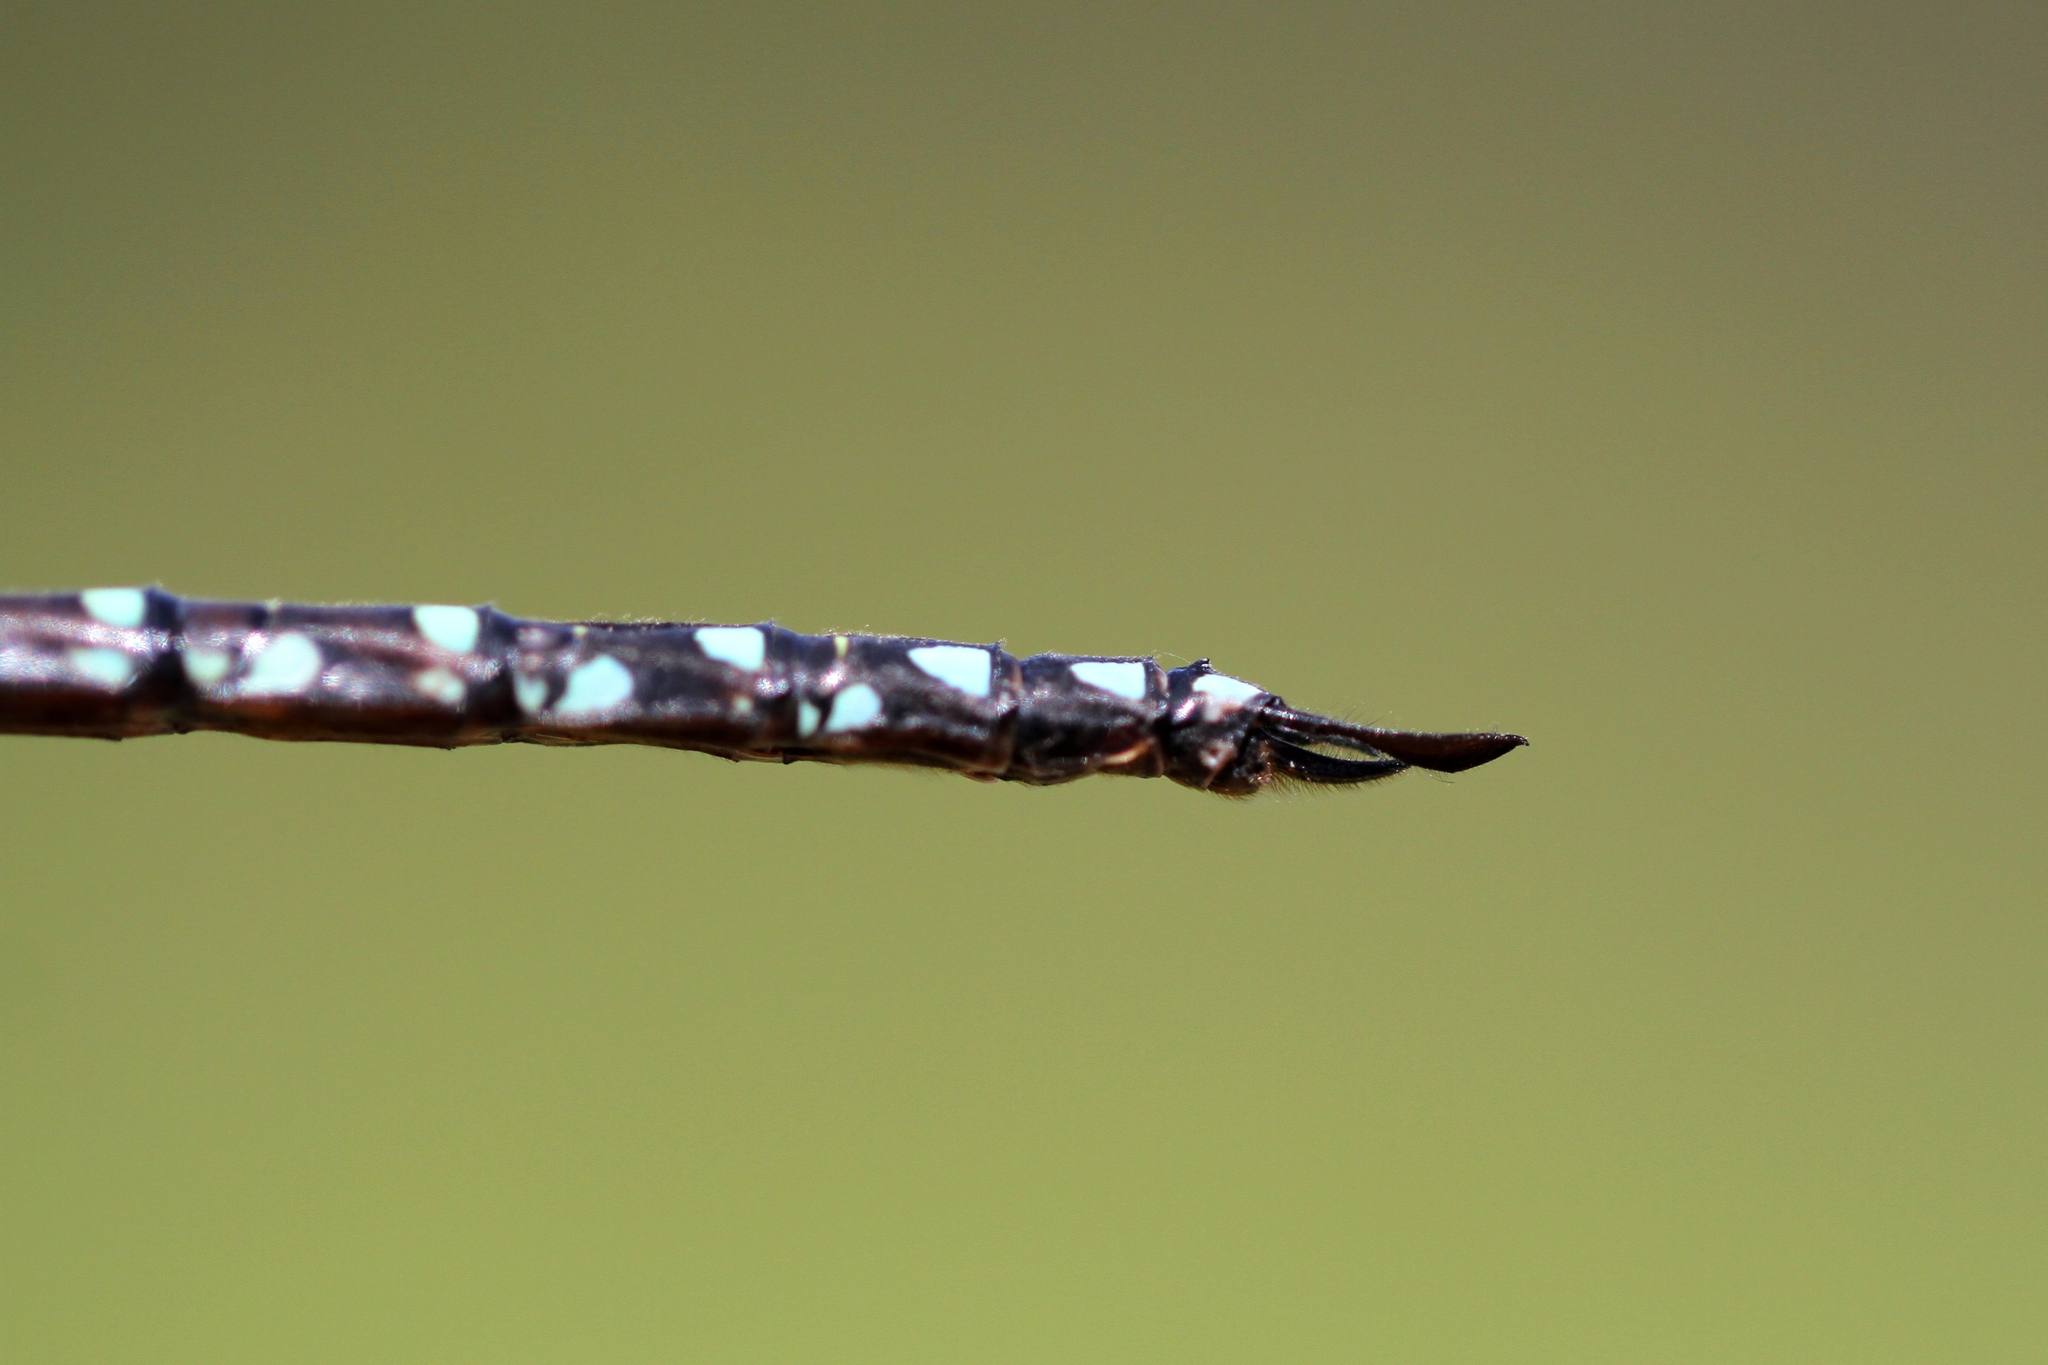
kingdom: Animalia
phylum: Arthropoda
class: Insecta
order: Odonata
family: Aeshnidae
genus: Aeshna
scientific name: Aeshna juncea
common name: Moorland hawker
